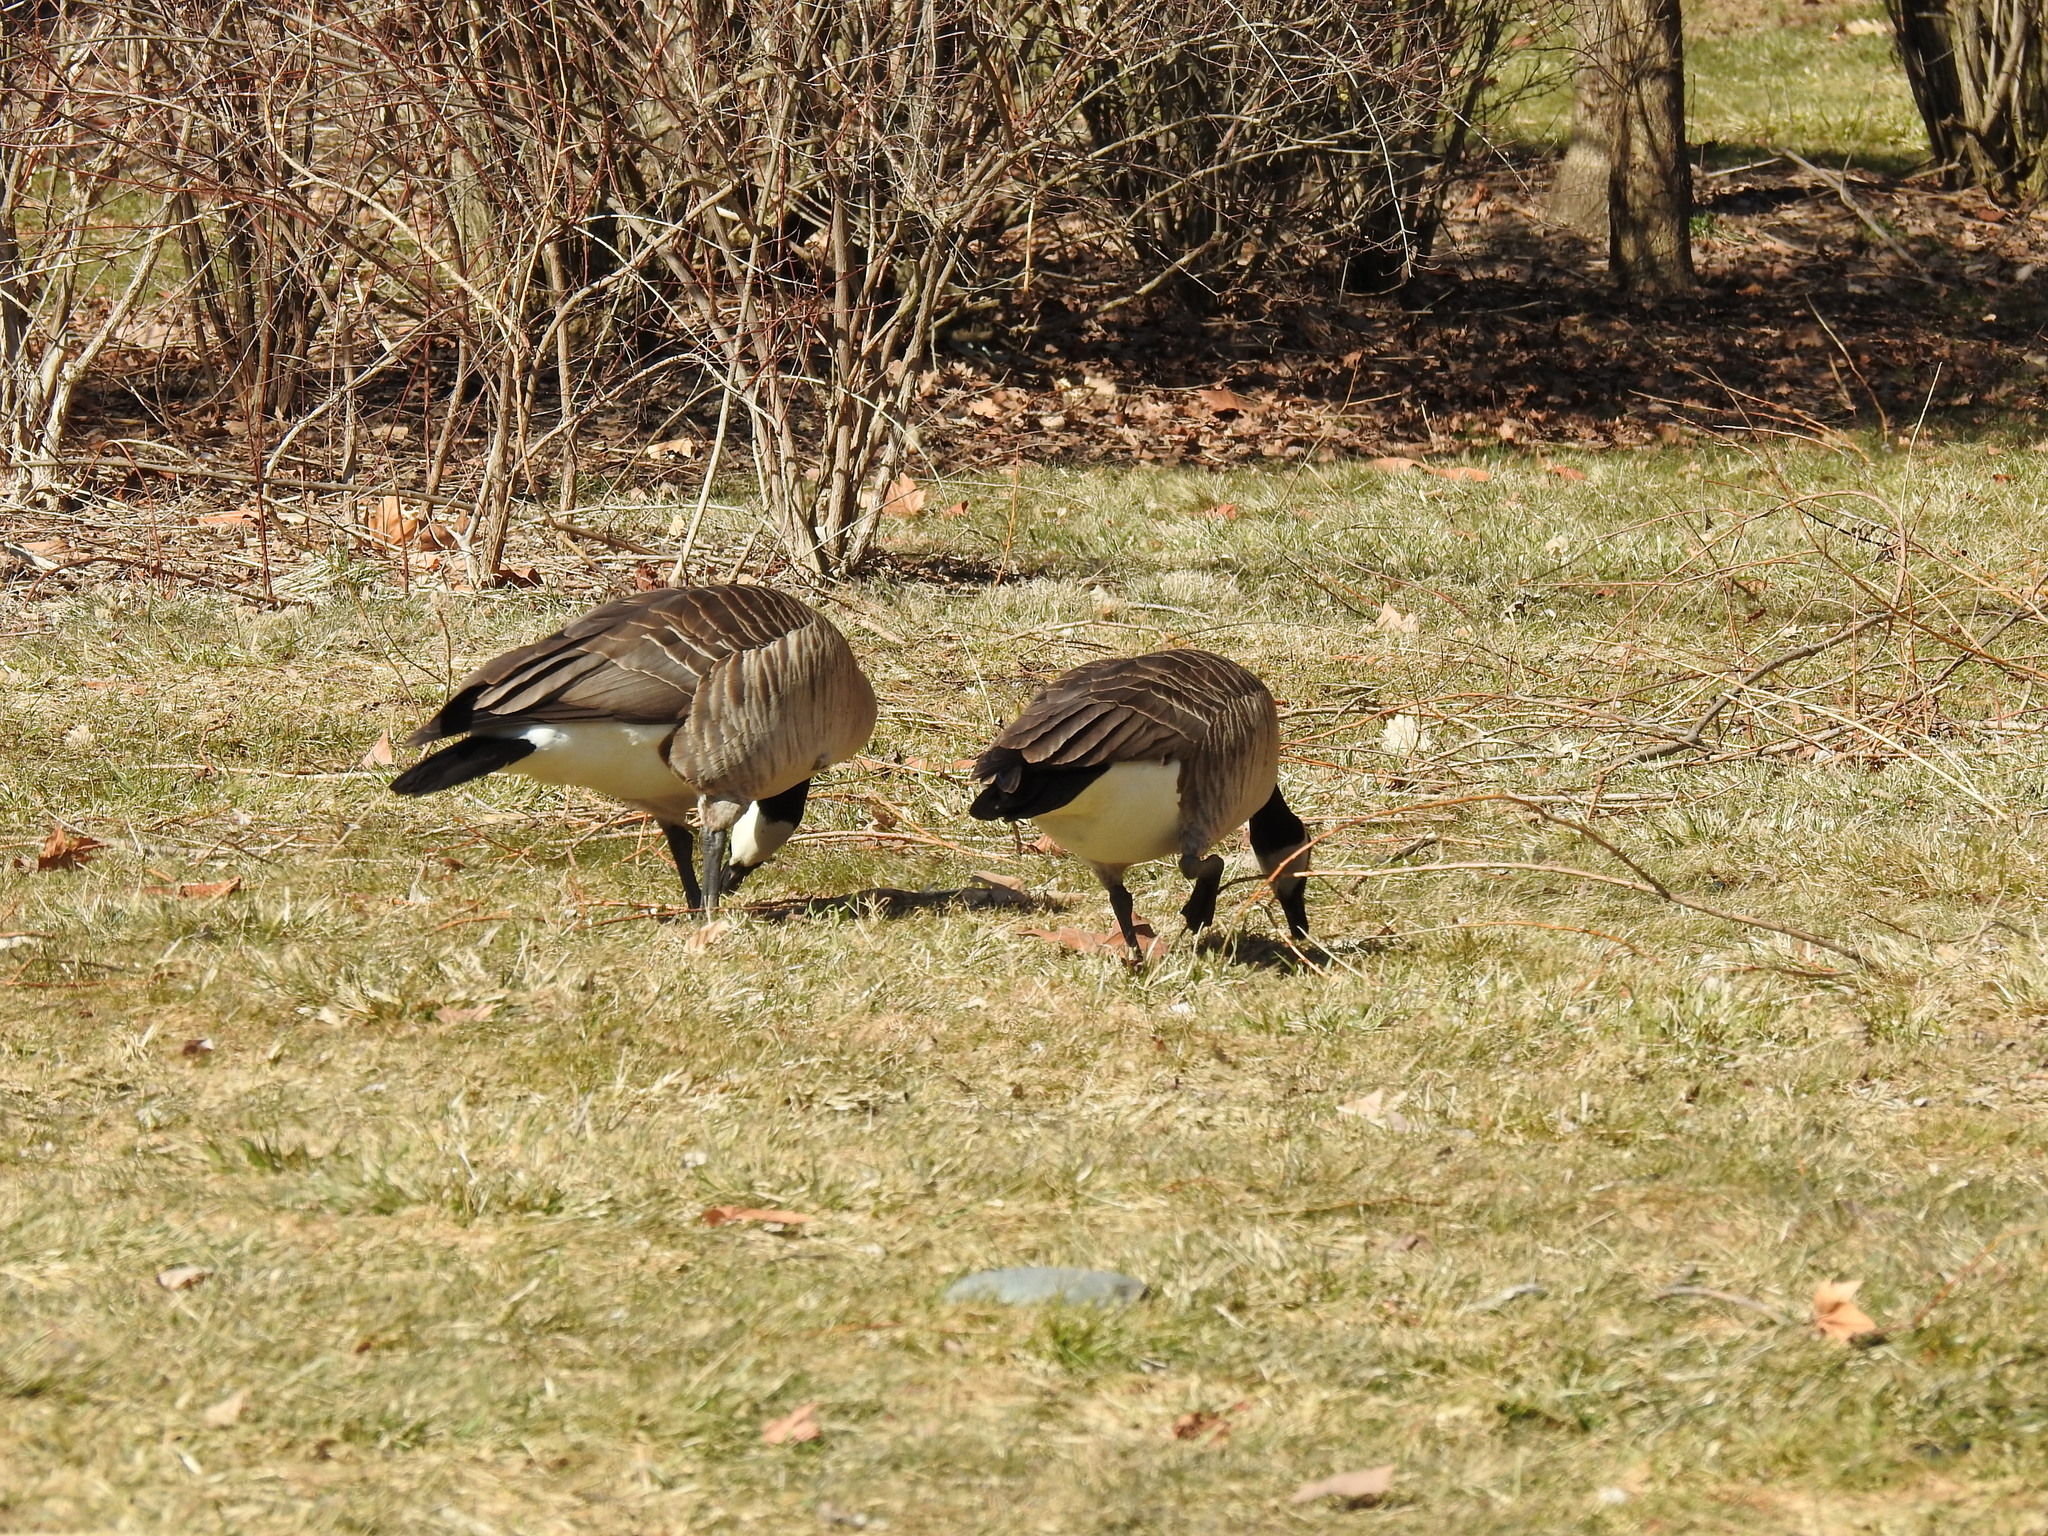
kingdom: Animalia
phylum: Chordata
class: Aves
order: Anseriformes
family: Anatidae
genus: Branta
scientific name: Branta canadensis
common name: Canada goose
